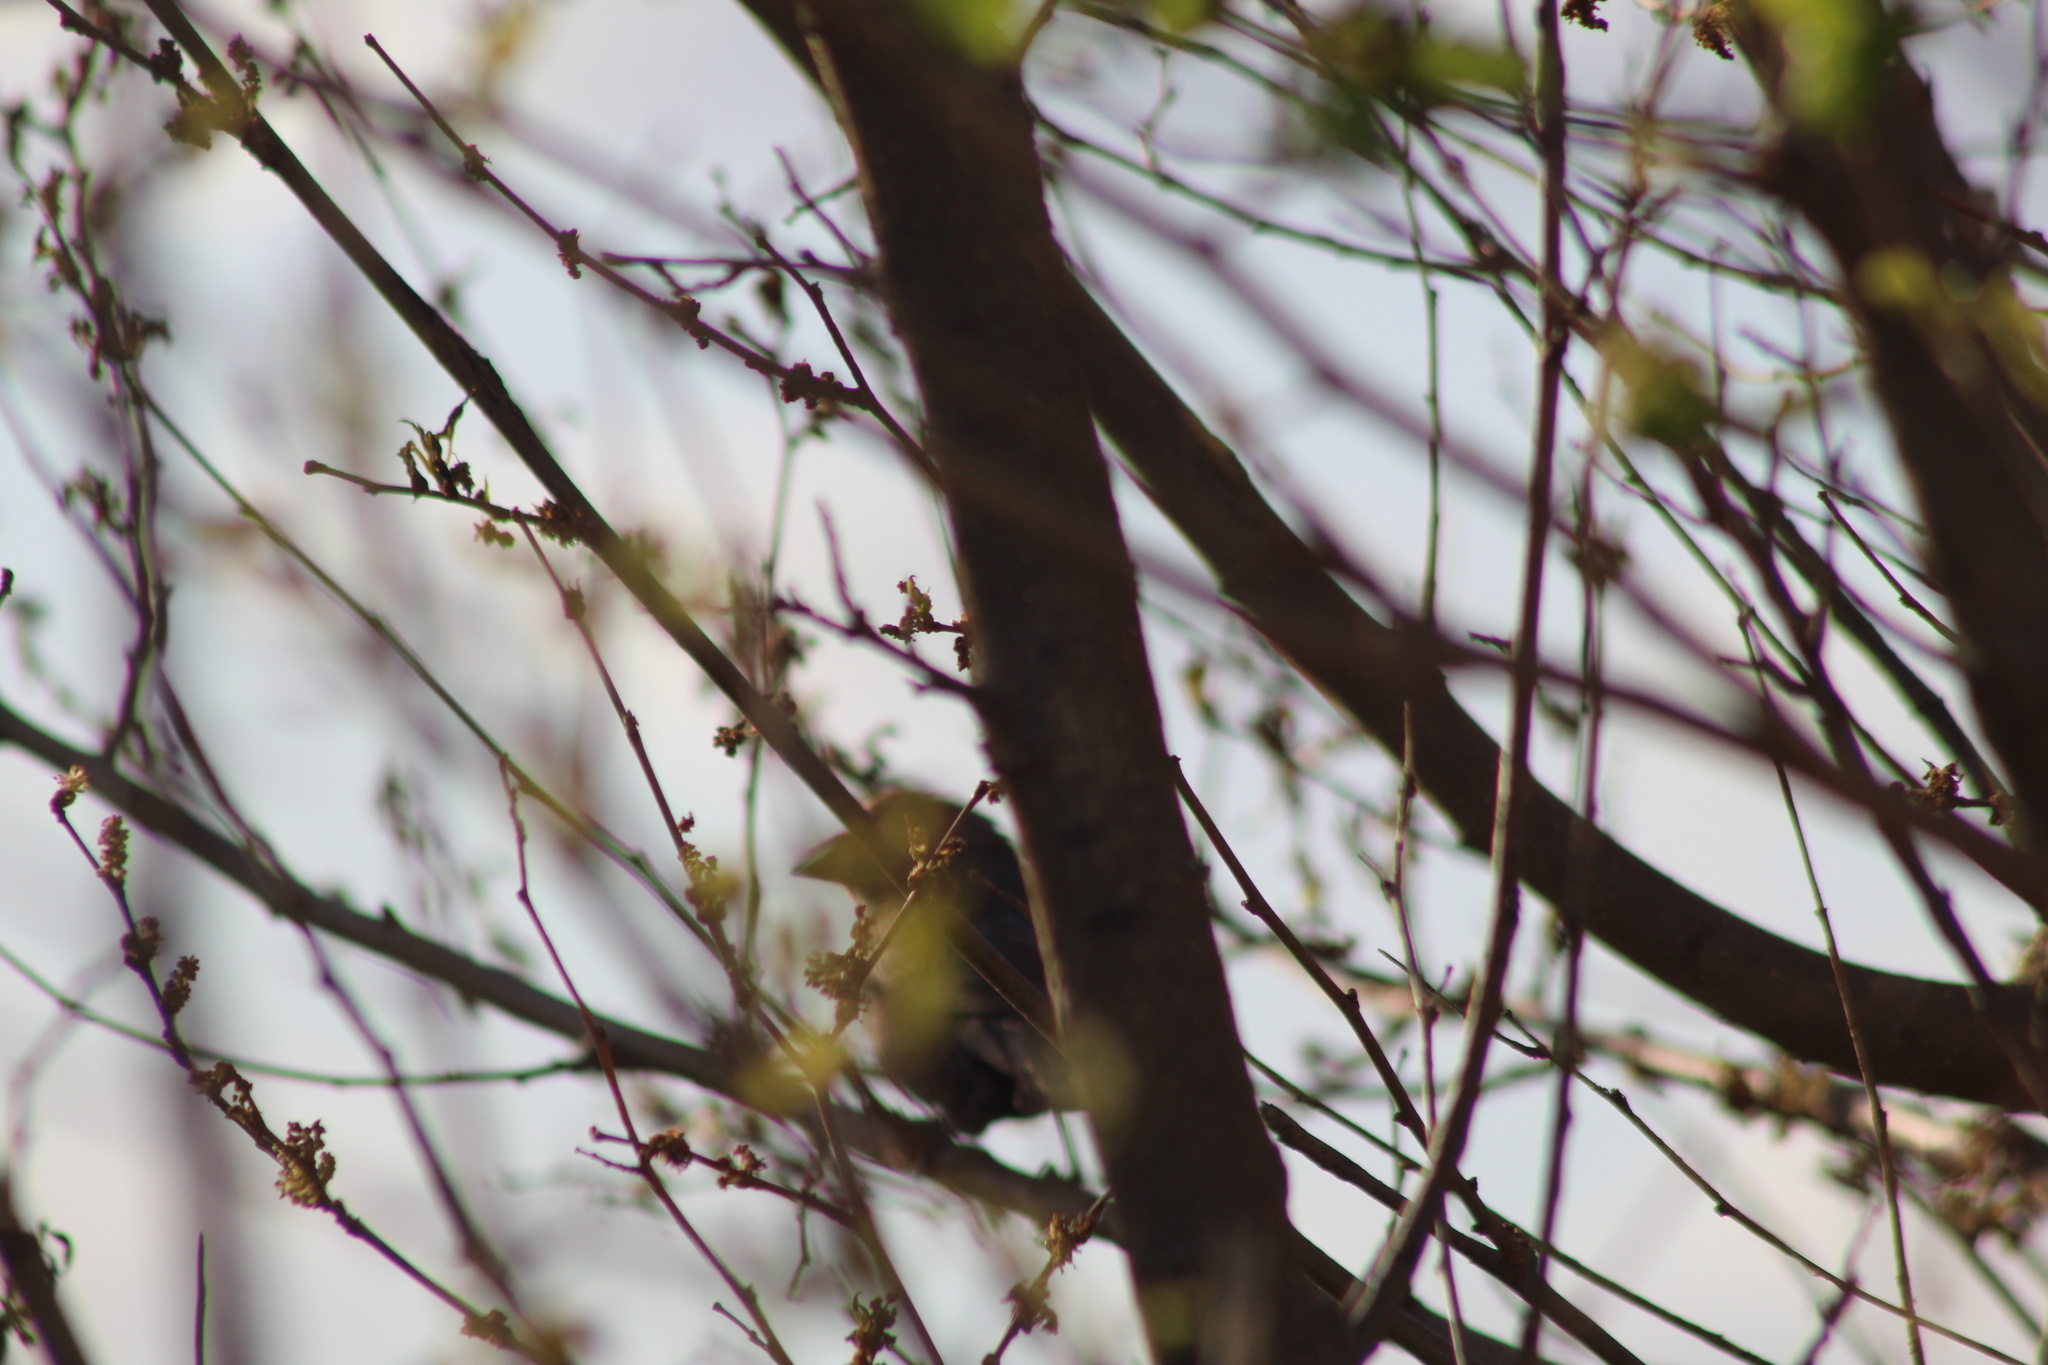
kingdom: Animalia
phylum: Chordata
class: Aves
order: Passeriformes
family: Icteridae
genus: Molothrus
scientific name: Molothrus ater
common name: Brown-headed cowbird
